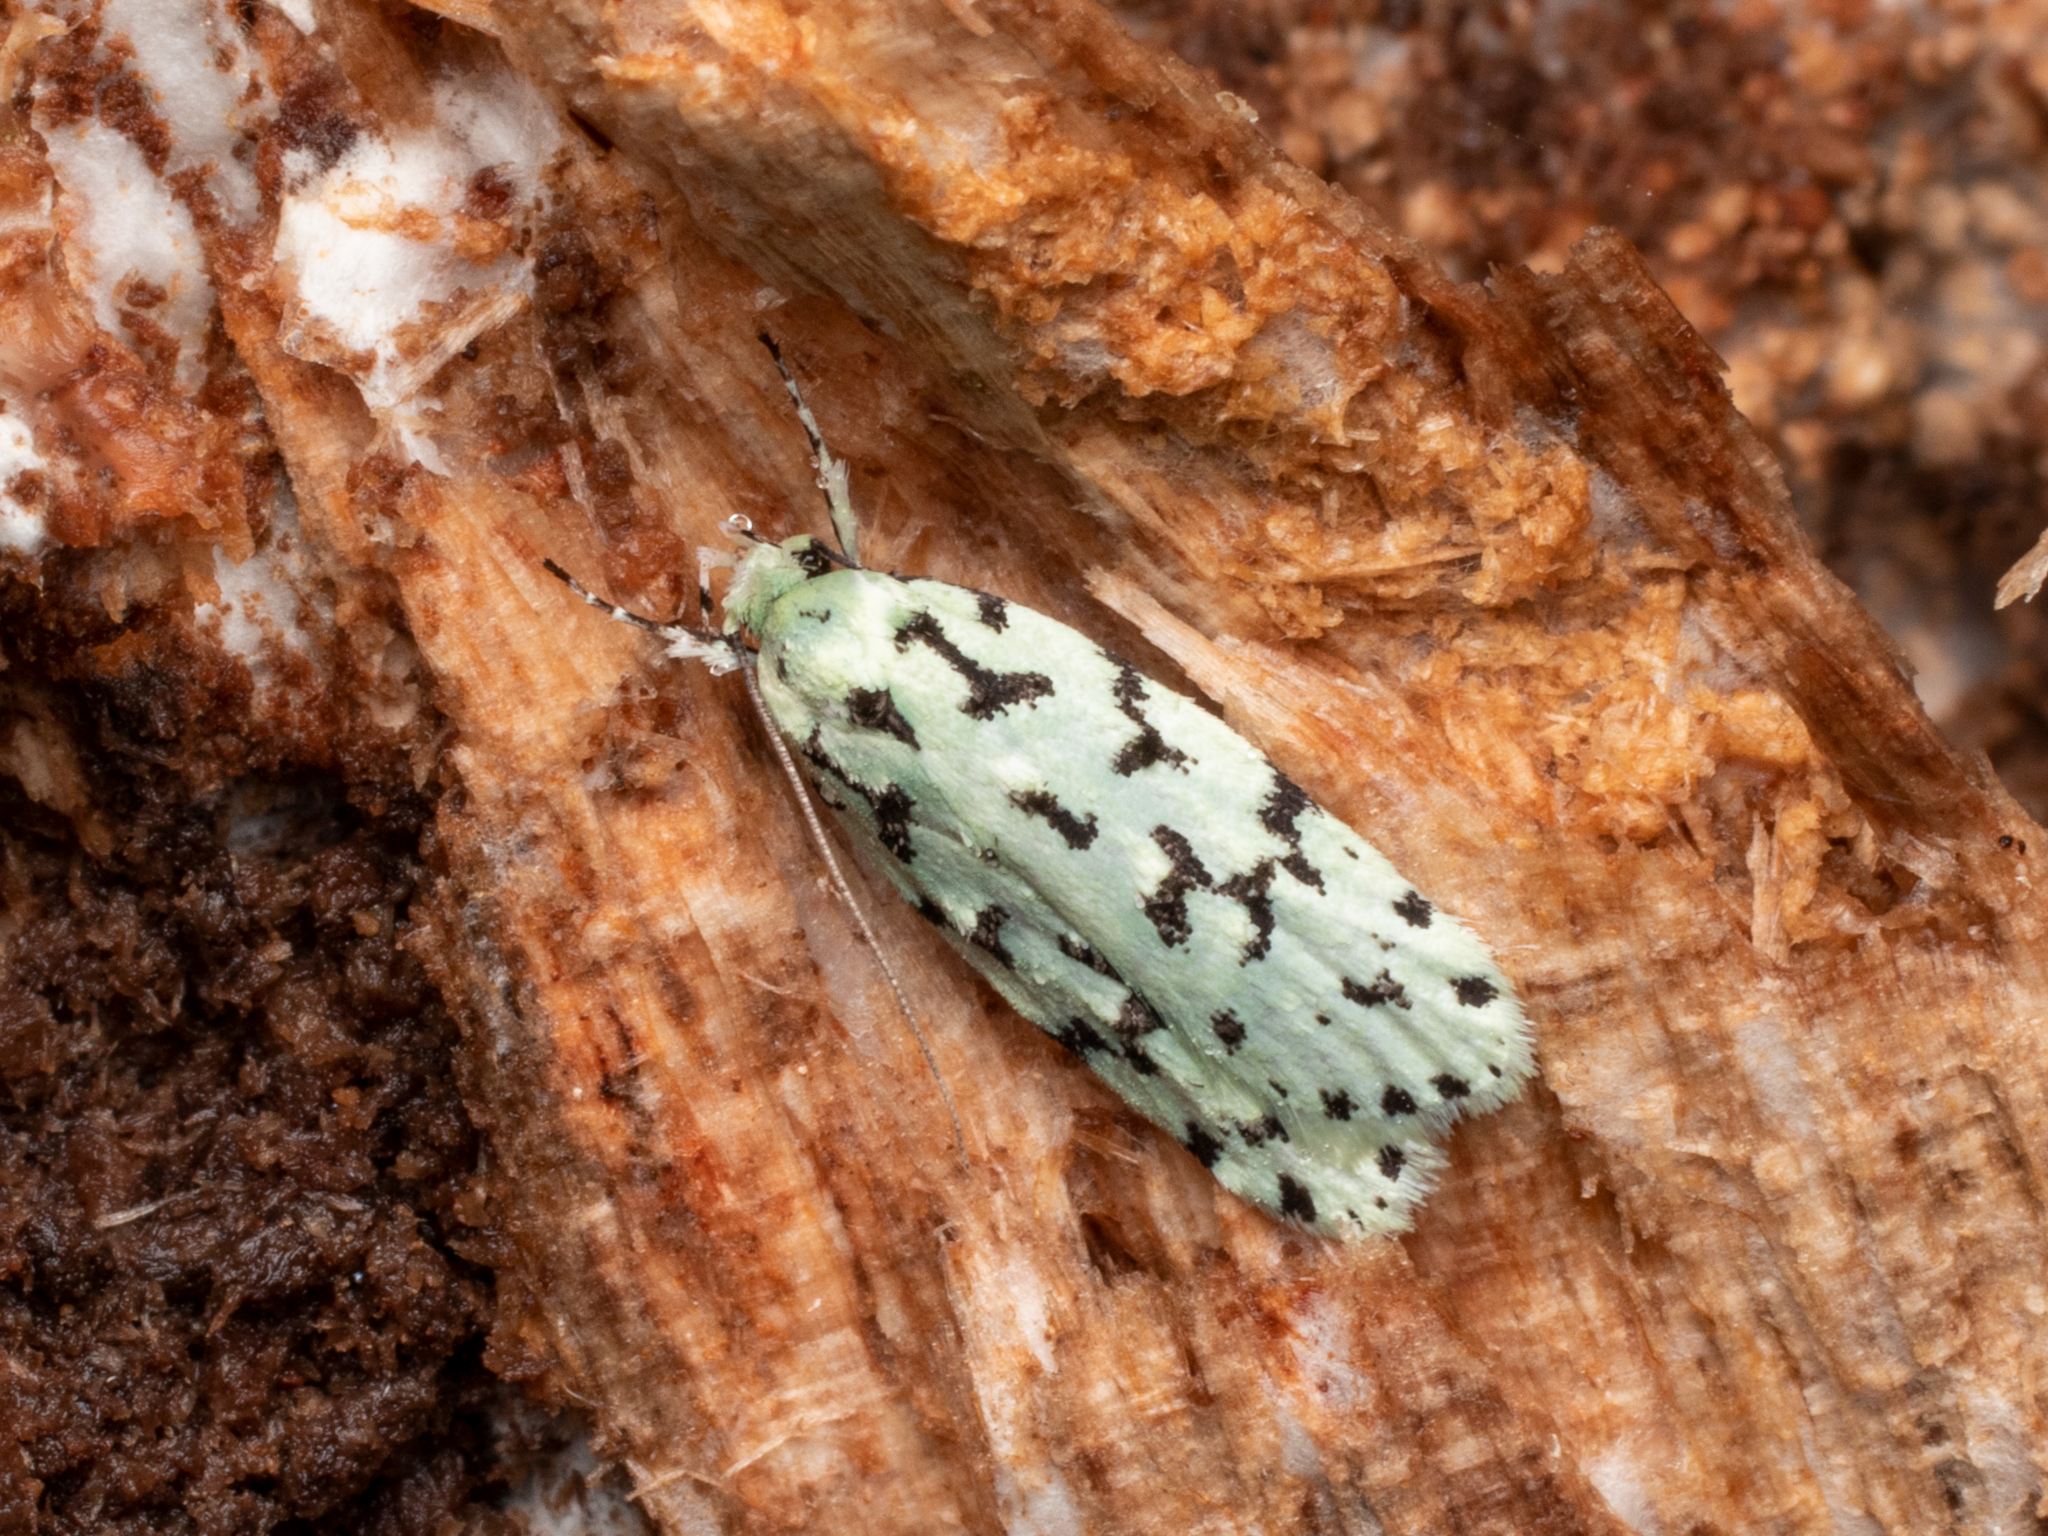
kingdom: Animalia
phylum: Arthropoda
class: Insecta
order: Lepidoptera
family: Oecophoridae
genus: Izatha
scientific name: Izatha huttoni
